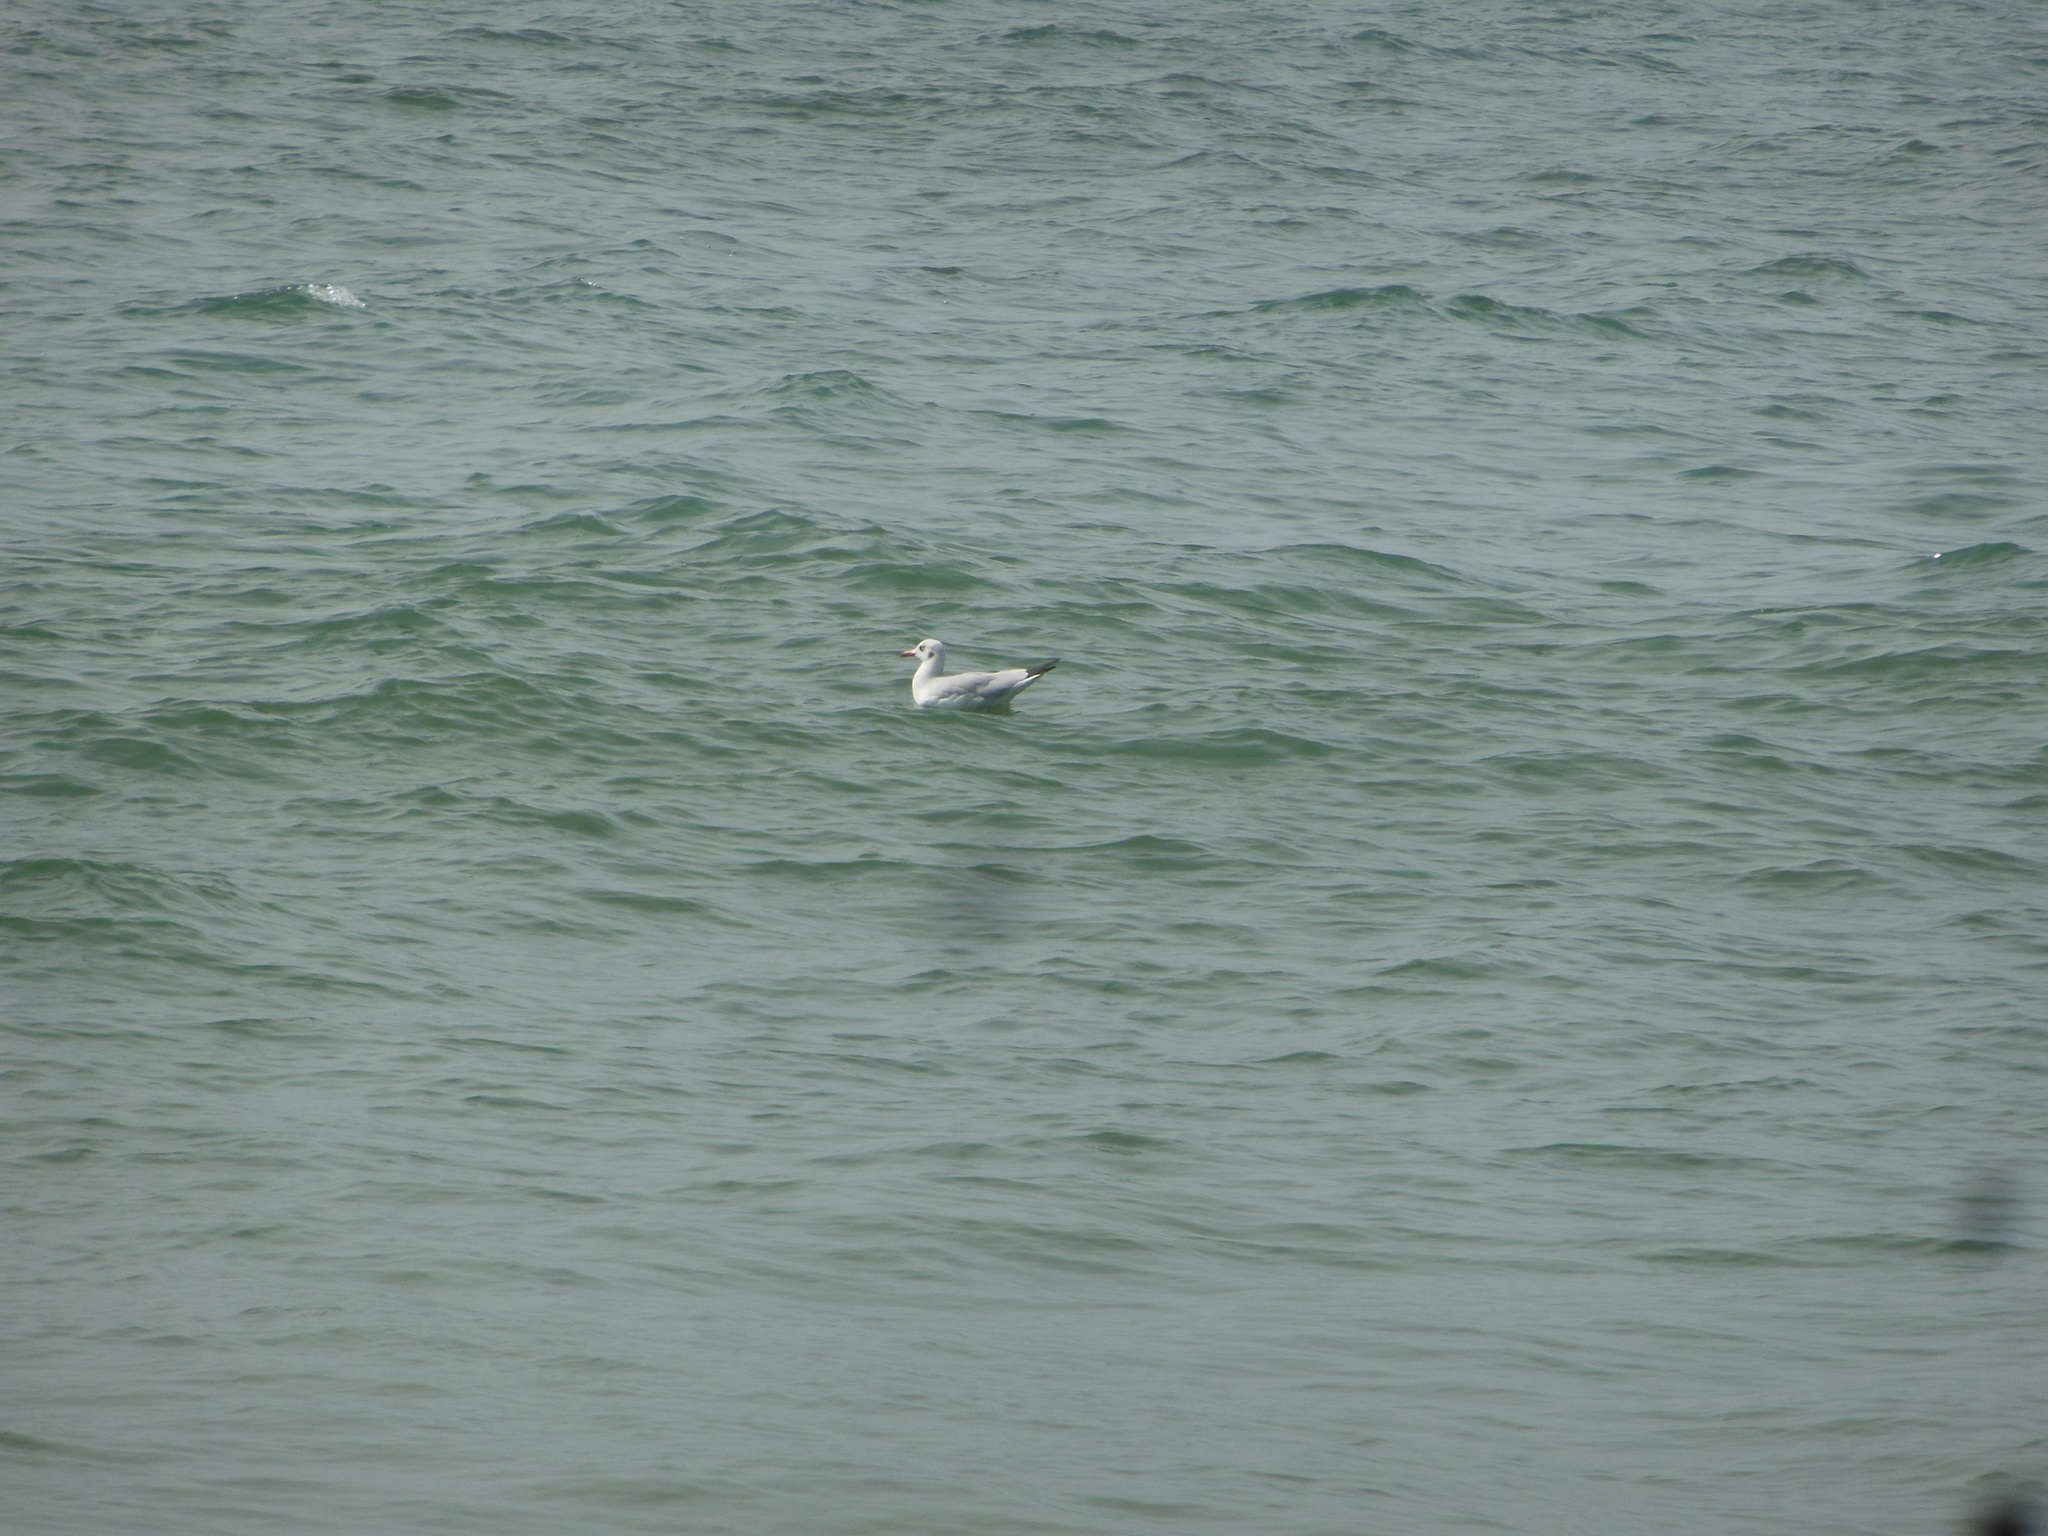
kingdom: Animalia
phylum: Chordata
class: Aves
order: Charadriiformes
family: Laridae
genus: Chroicocephalus
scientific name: Chroicocephalus brunnicephalus
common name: Brown-headed gull
